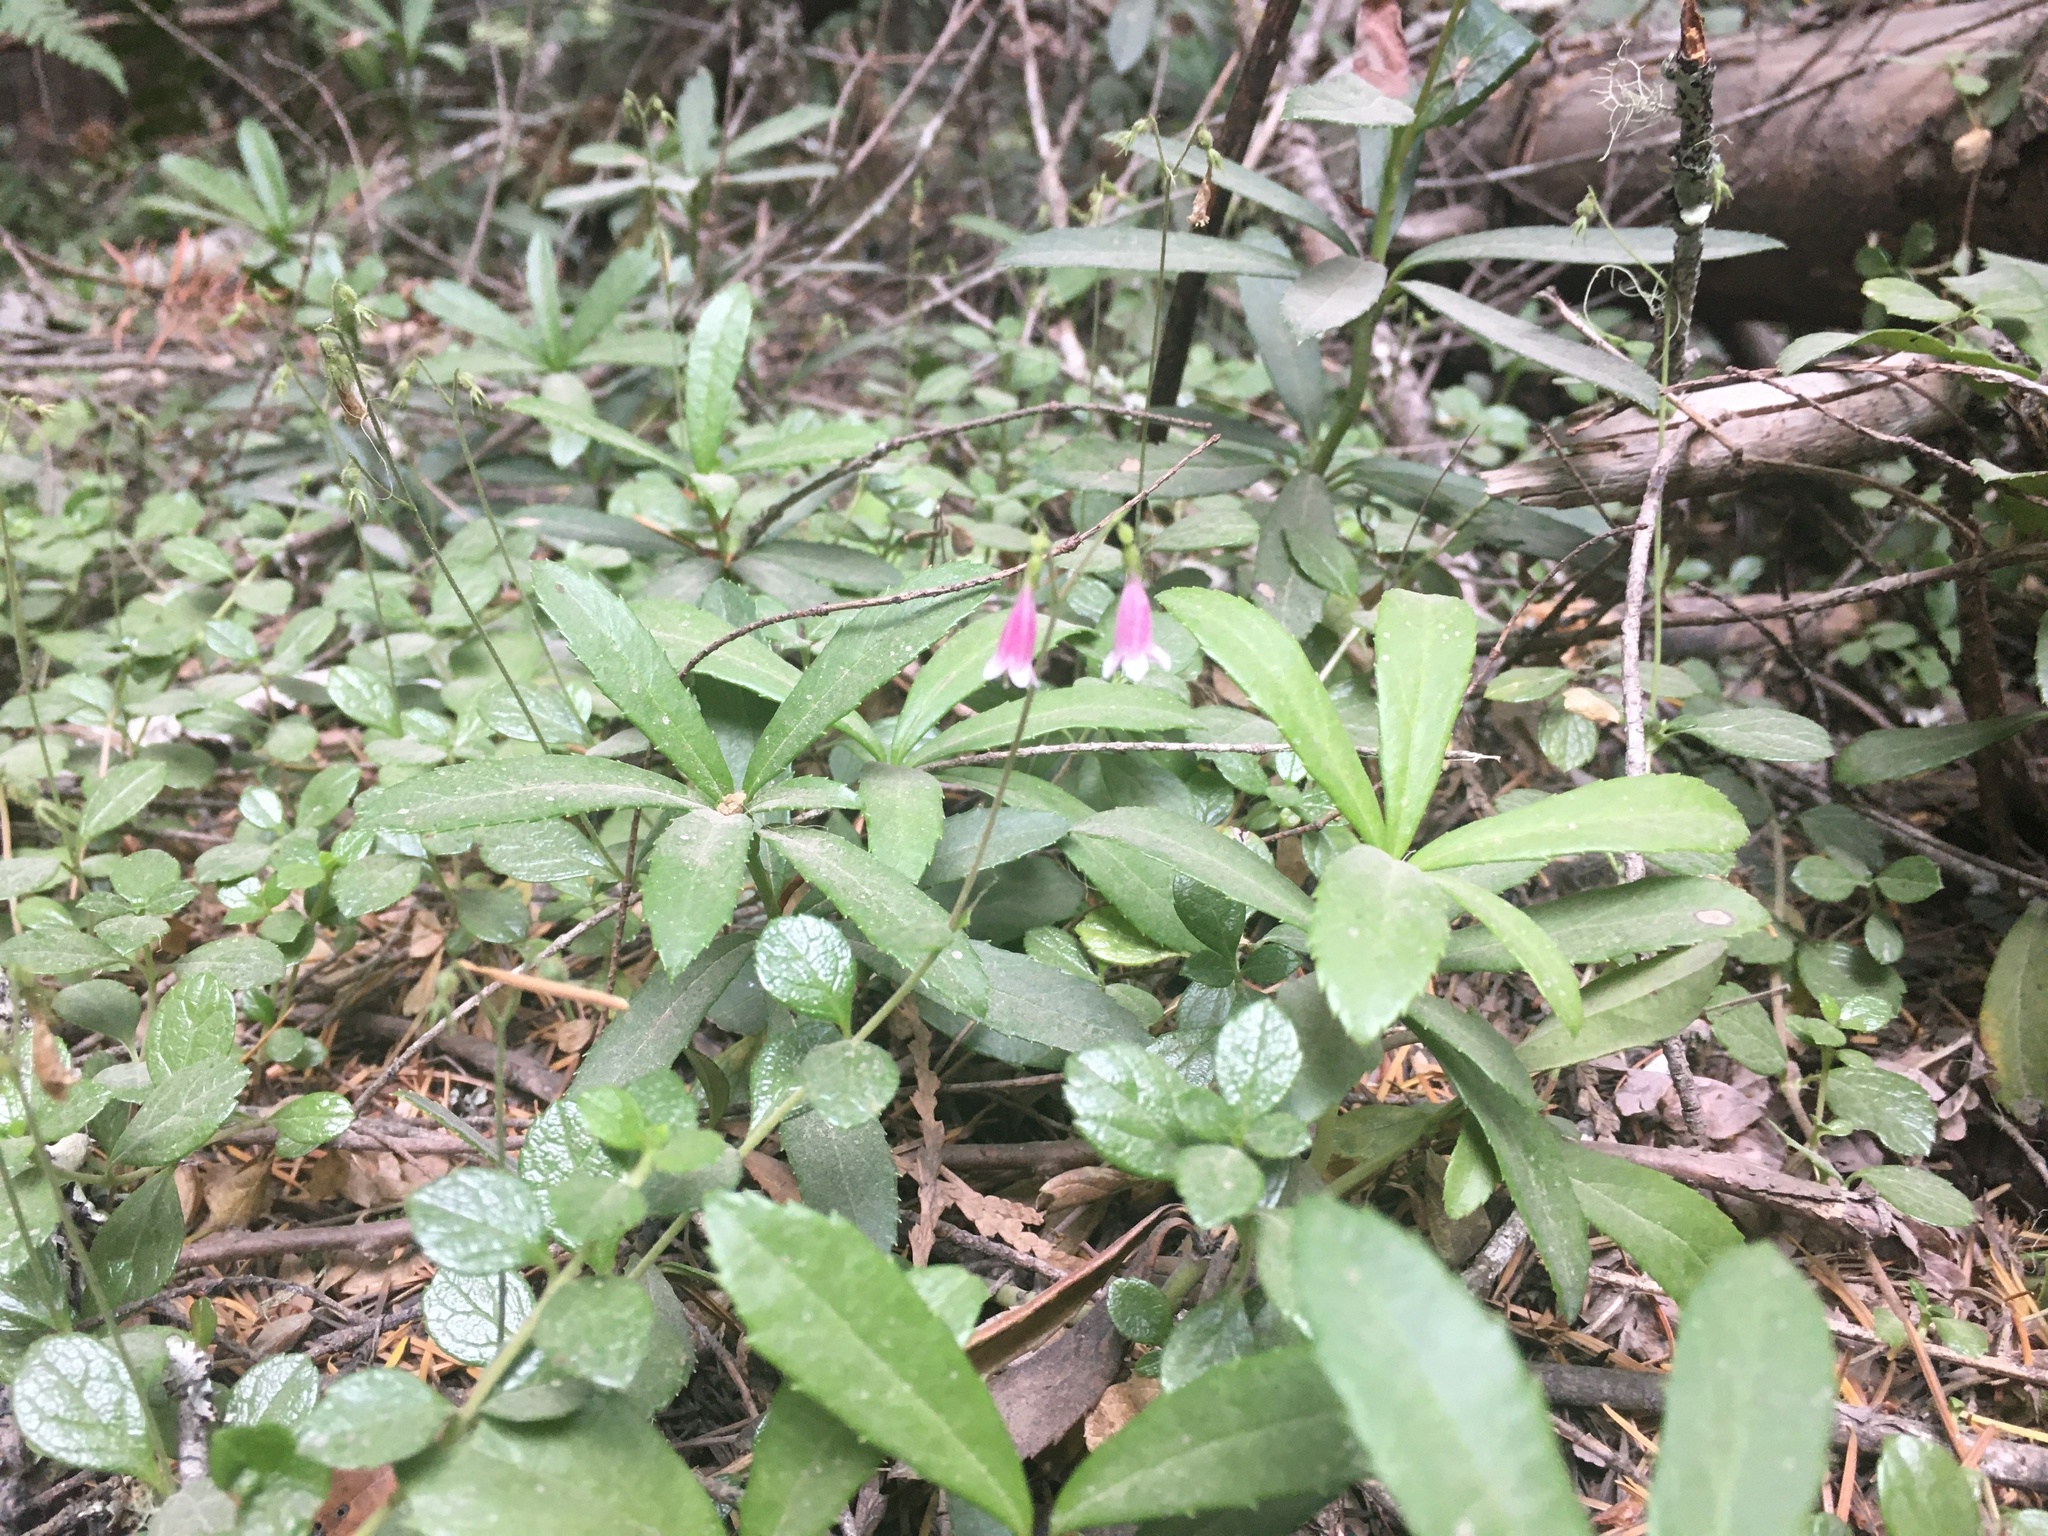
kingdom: Plantae
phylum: Tracheophyta
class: Magnoliopsida
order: Dipsacales
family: Caprifoliaceae
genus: Linnaea
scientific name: Linnaea borealis
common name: Twinflower
